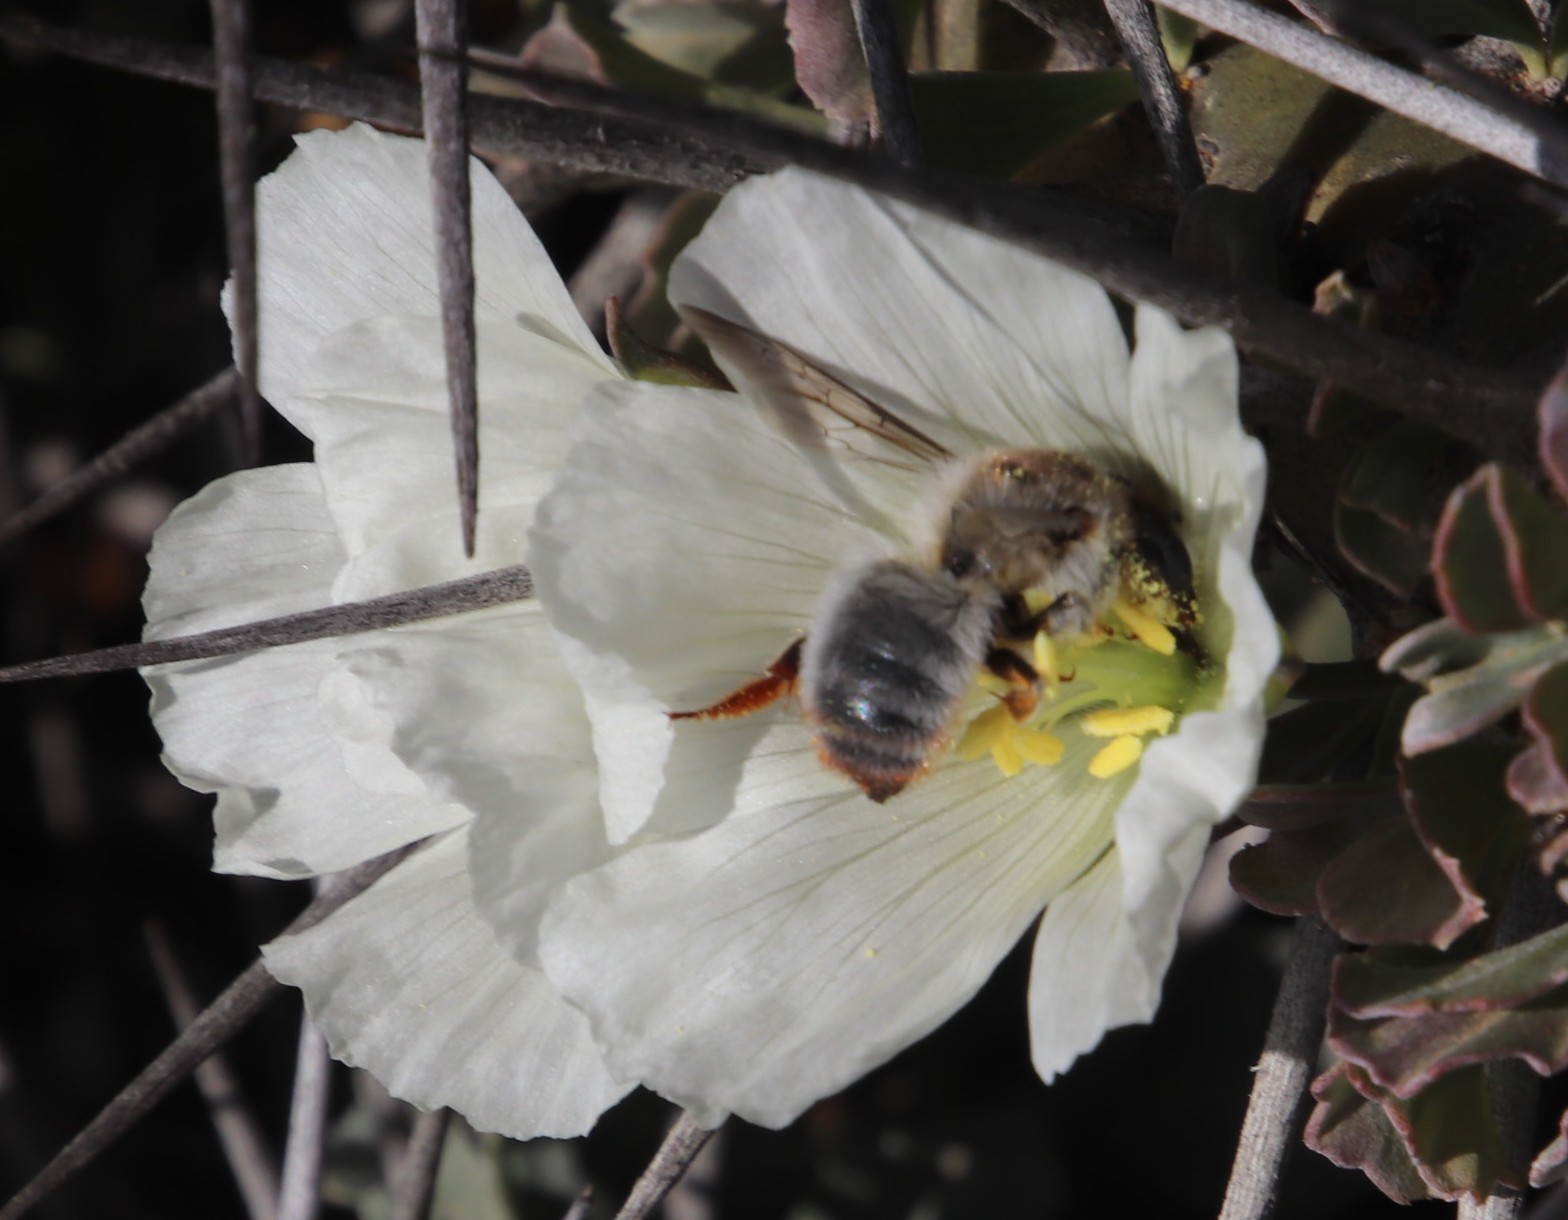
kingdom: Plantae
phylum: Tracheophyta
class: Magnoliopsida
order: Geraniales
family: Geraniaceae
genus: Monsonia
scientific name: Monsonia crassicaulis
